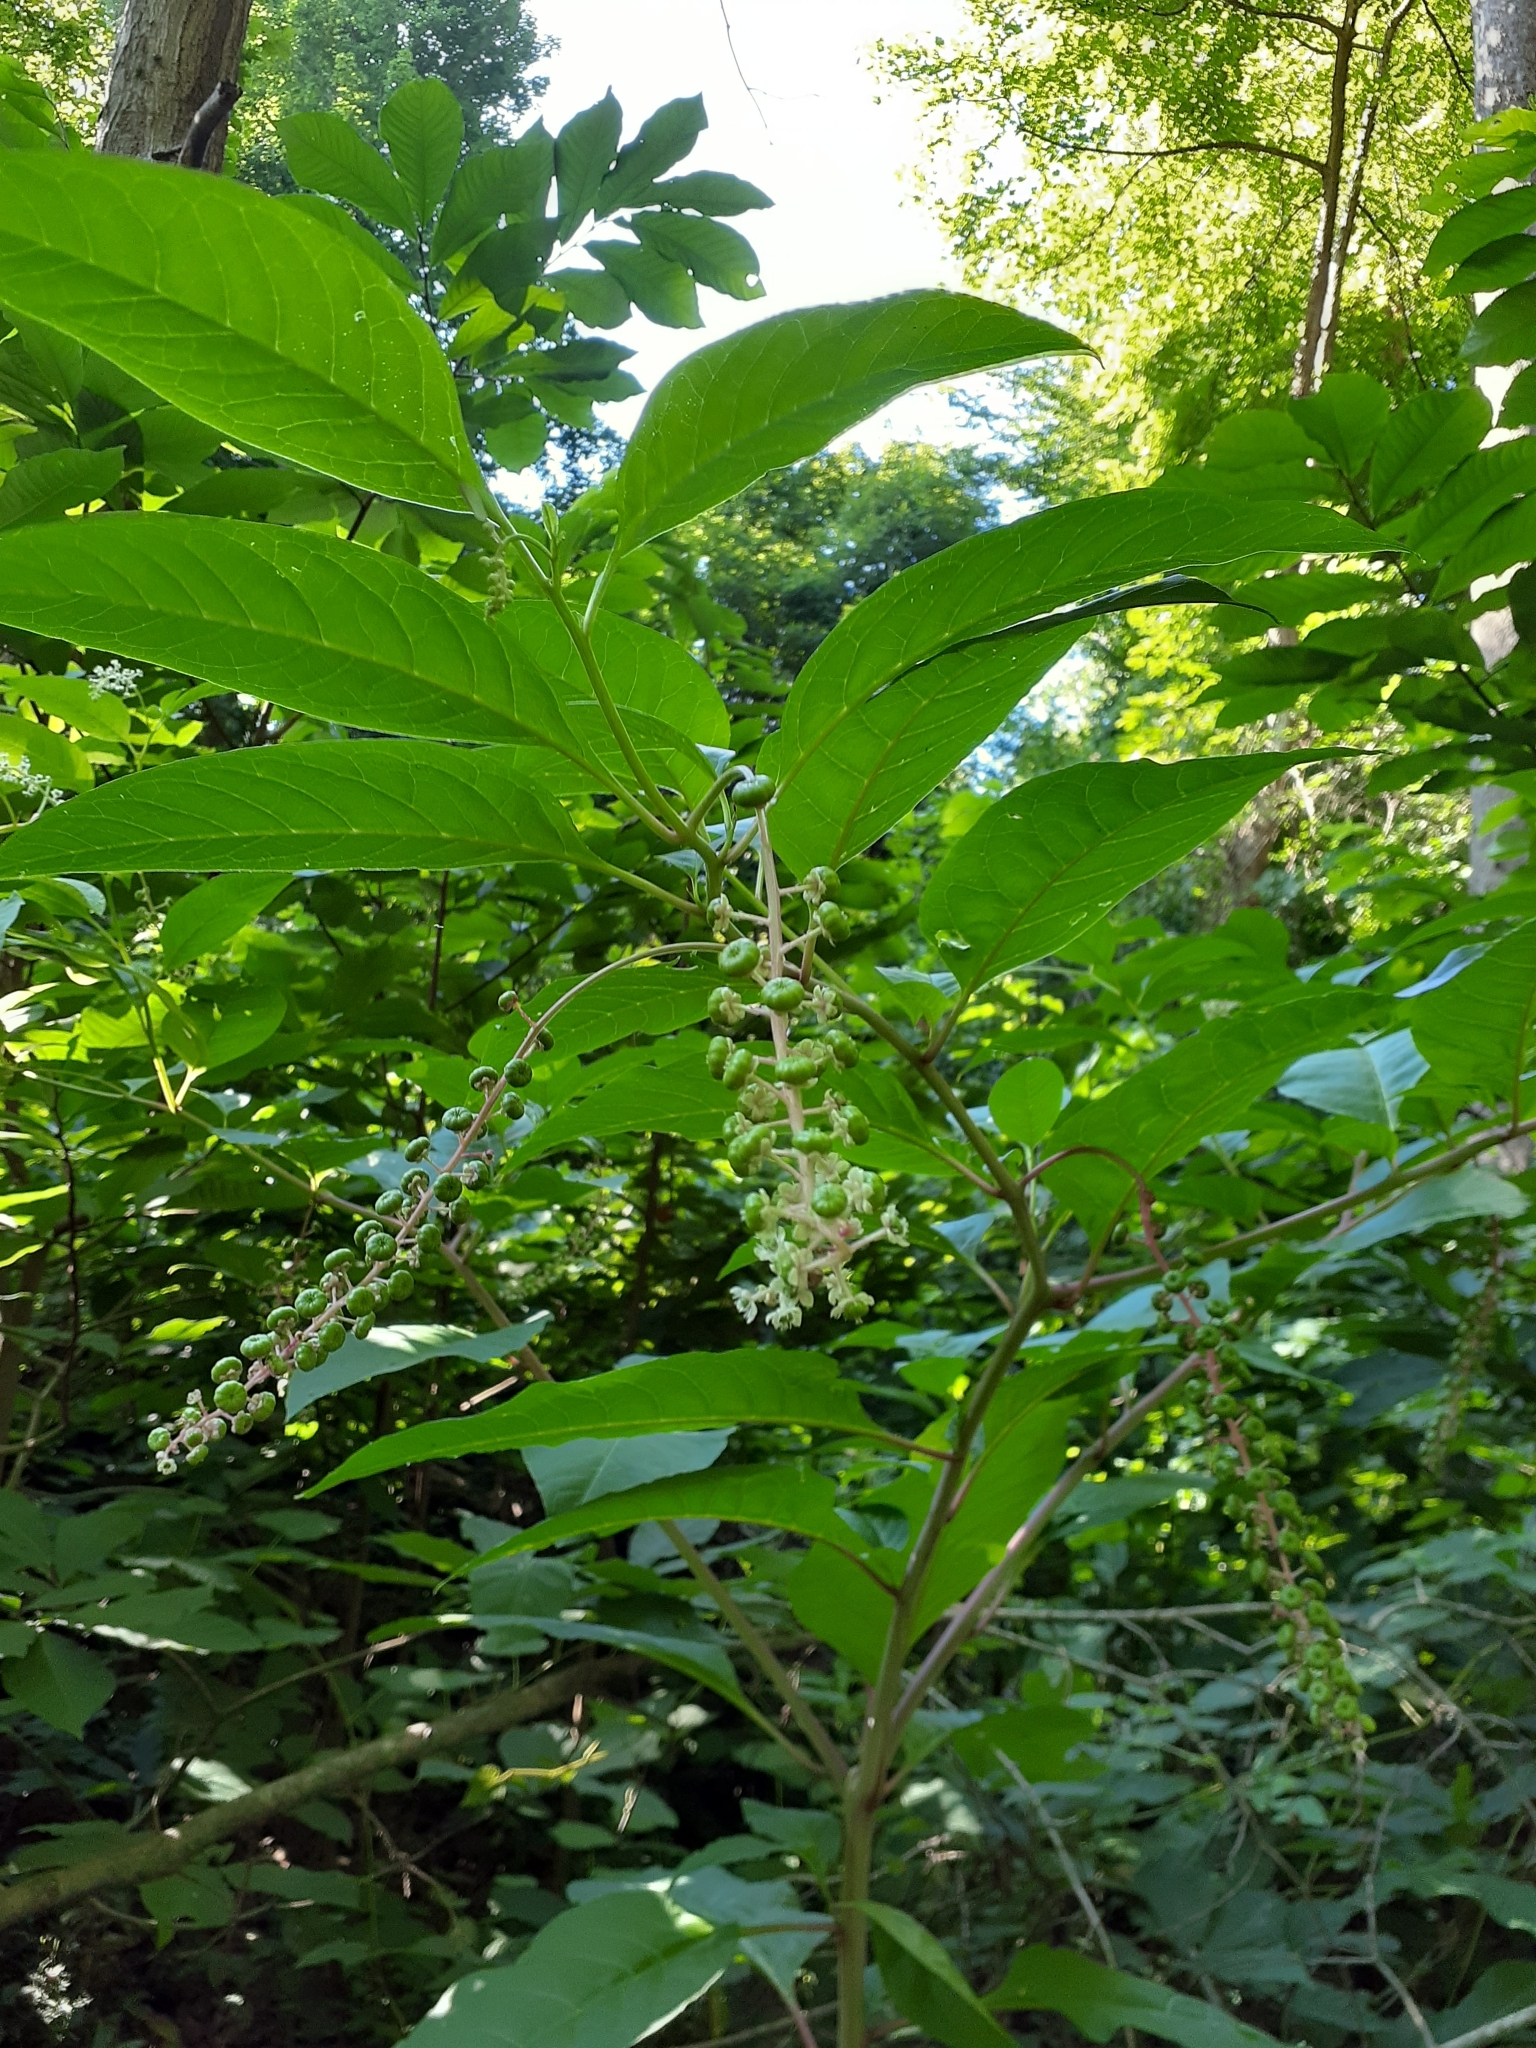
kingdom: Plantae
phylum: Tracheophyta
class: Magnoliopsida
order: Caryophyllales
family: Phytolaccaceae
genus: Phytolacca
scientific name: Phytolacca americana
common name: American pokeweed
